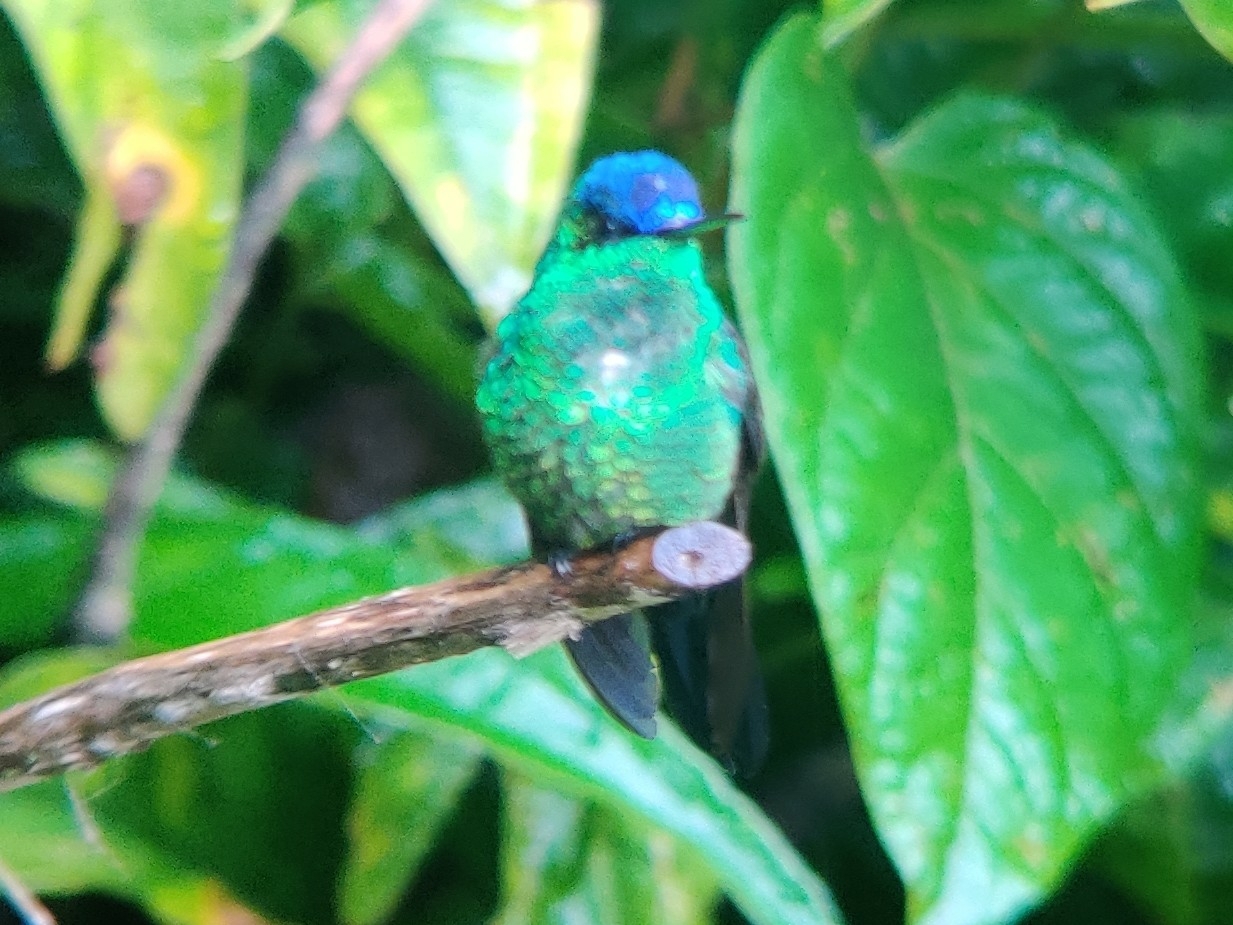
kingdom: Animalia
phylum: Chordata
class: Aves
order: Apodiformes
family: Trochilidae
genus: Thalurania
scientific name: Thalurania glaucopis
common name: Violet-capped woodnymph
